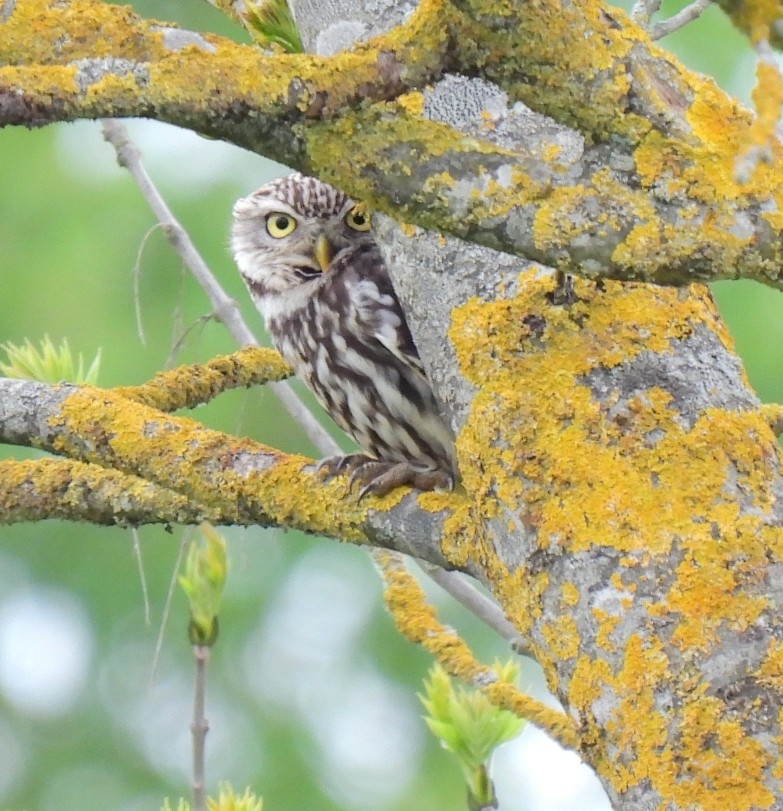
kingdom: Animalia
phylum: Chordata
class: Aves
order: Strigiformes
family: Strigidae
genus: Athene
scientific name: Athene noctua
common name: Little owl
